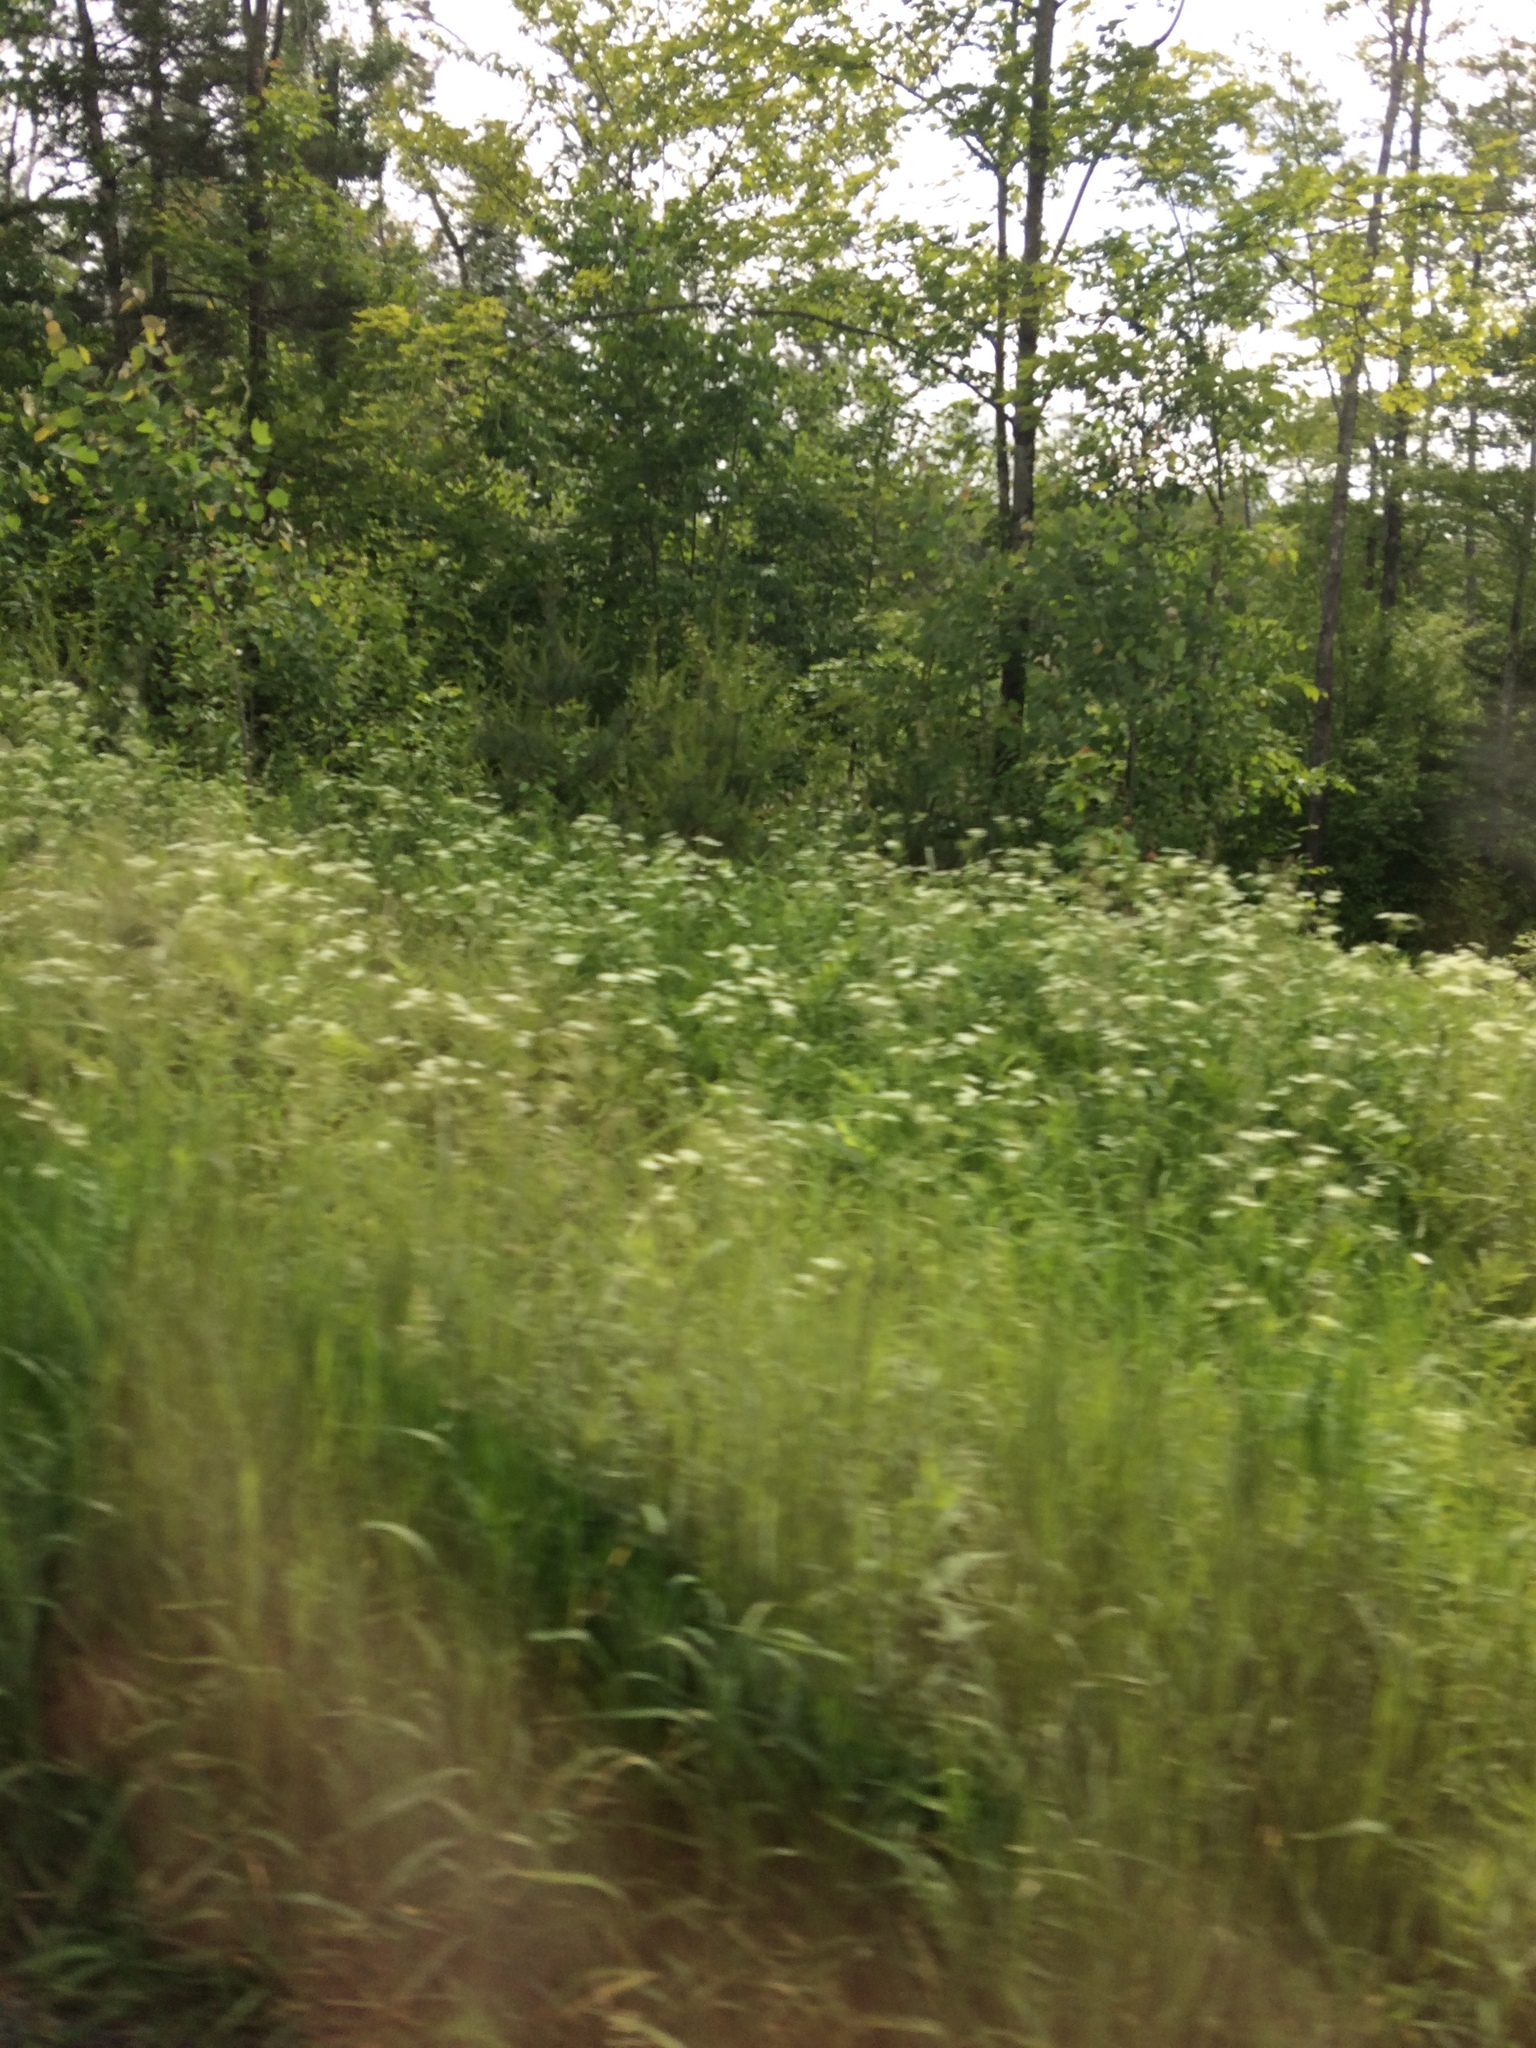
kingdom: Plantae
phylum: Tracheophyta
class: Magnoliopsida
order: Apiales
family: Apiaceae
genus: Anthriscus
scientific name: Anthriscus sylvestris
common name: Cow parsley
